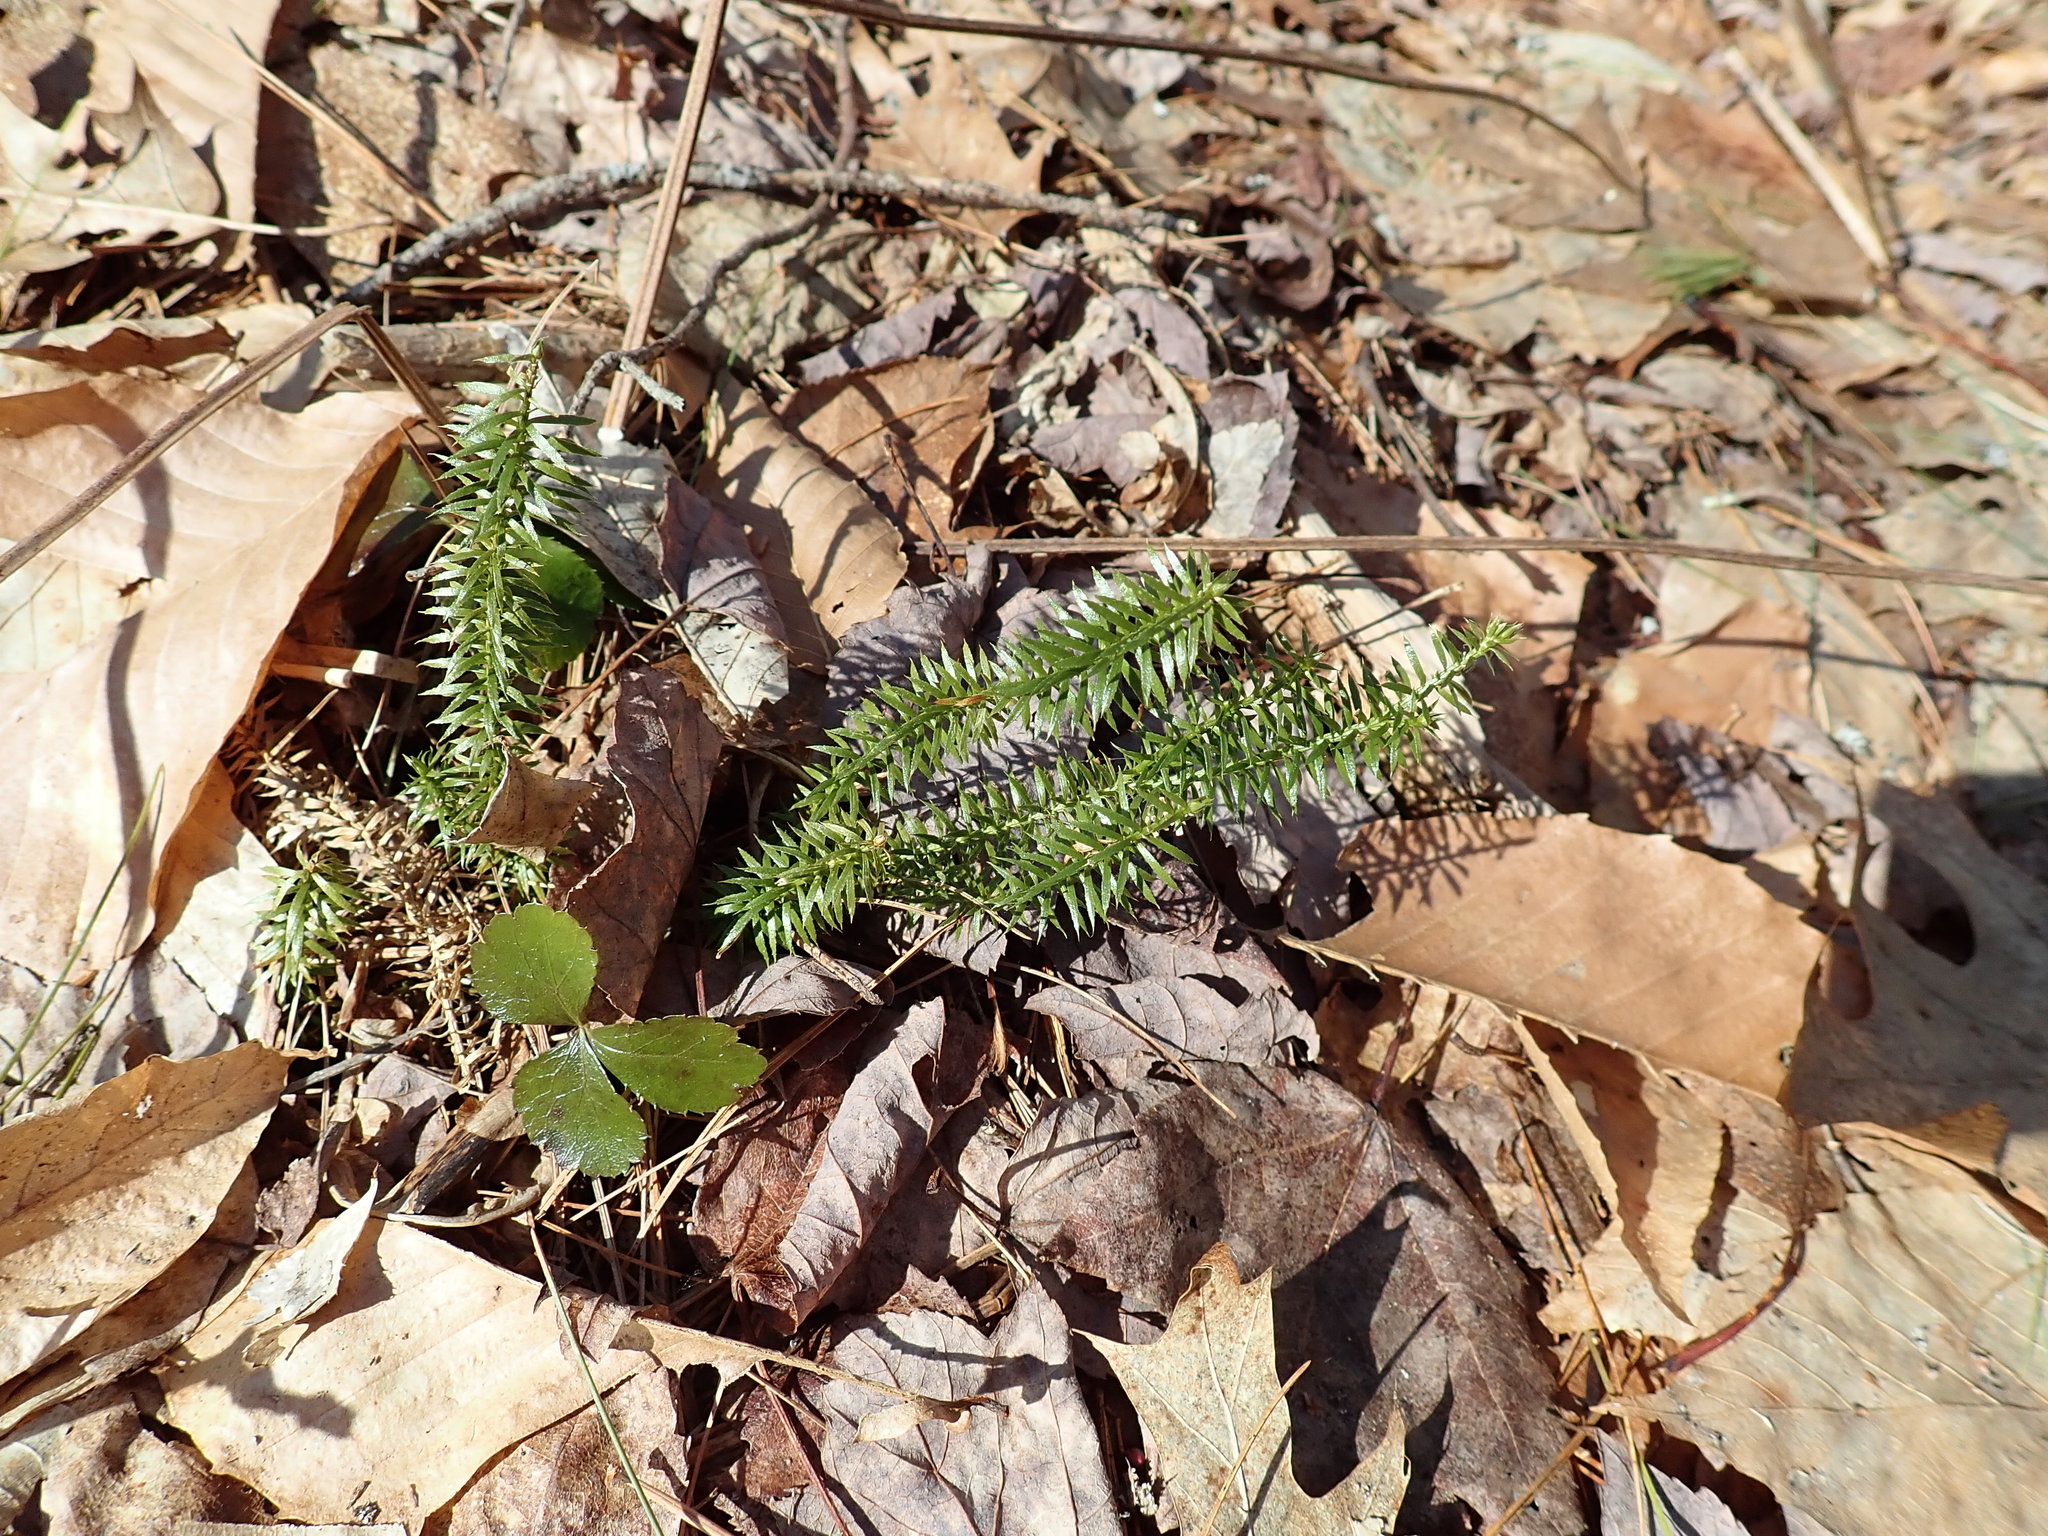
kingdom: Plantae
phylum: Tracheophyta
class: Lycopodiopsida
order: Lycopodiales
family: Lycopodiaceae
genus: Spinulum
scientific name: Spinulum annotinum
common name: Interrupted club-moss
